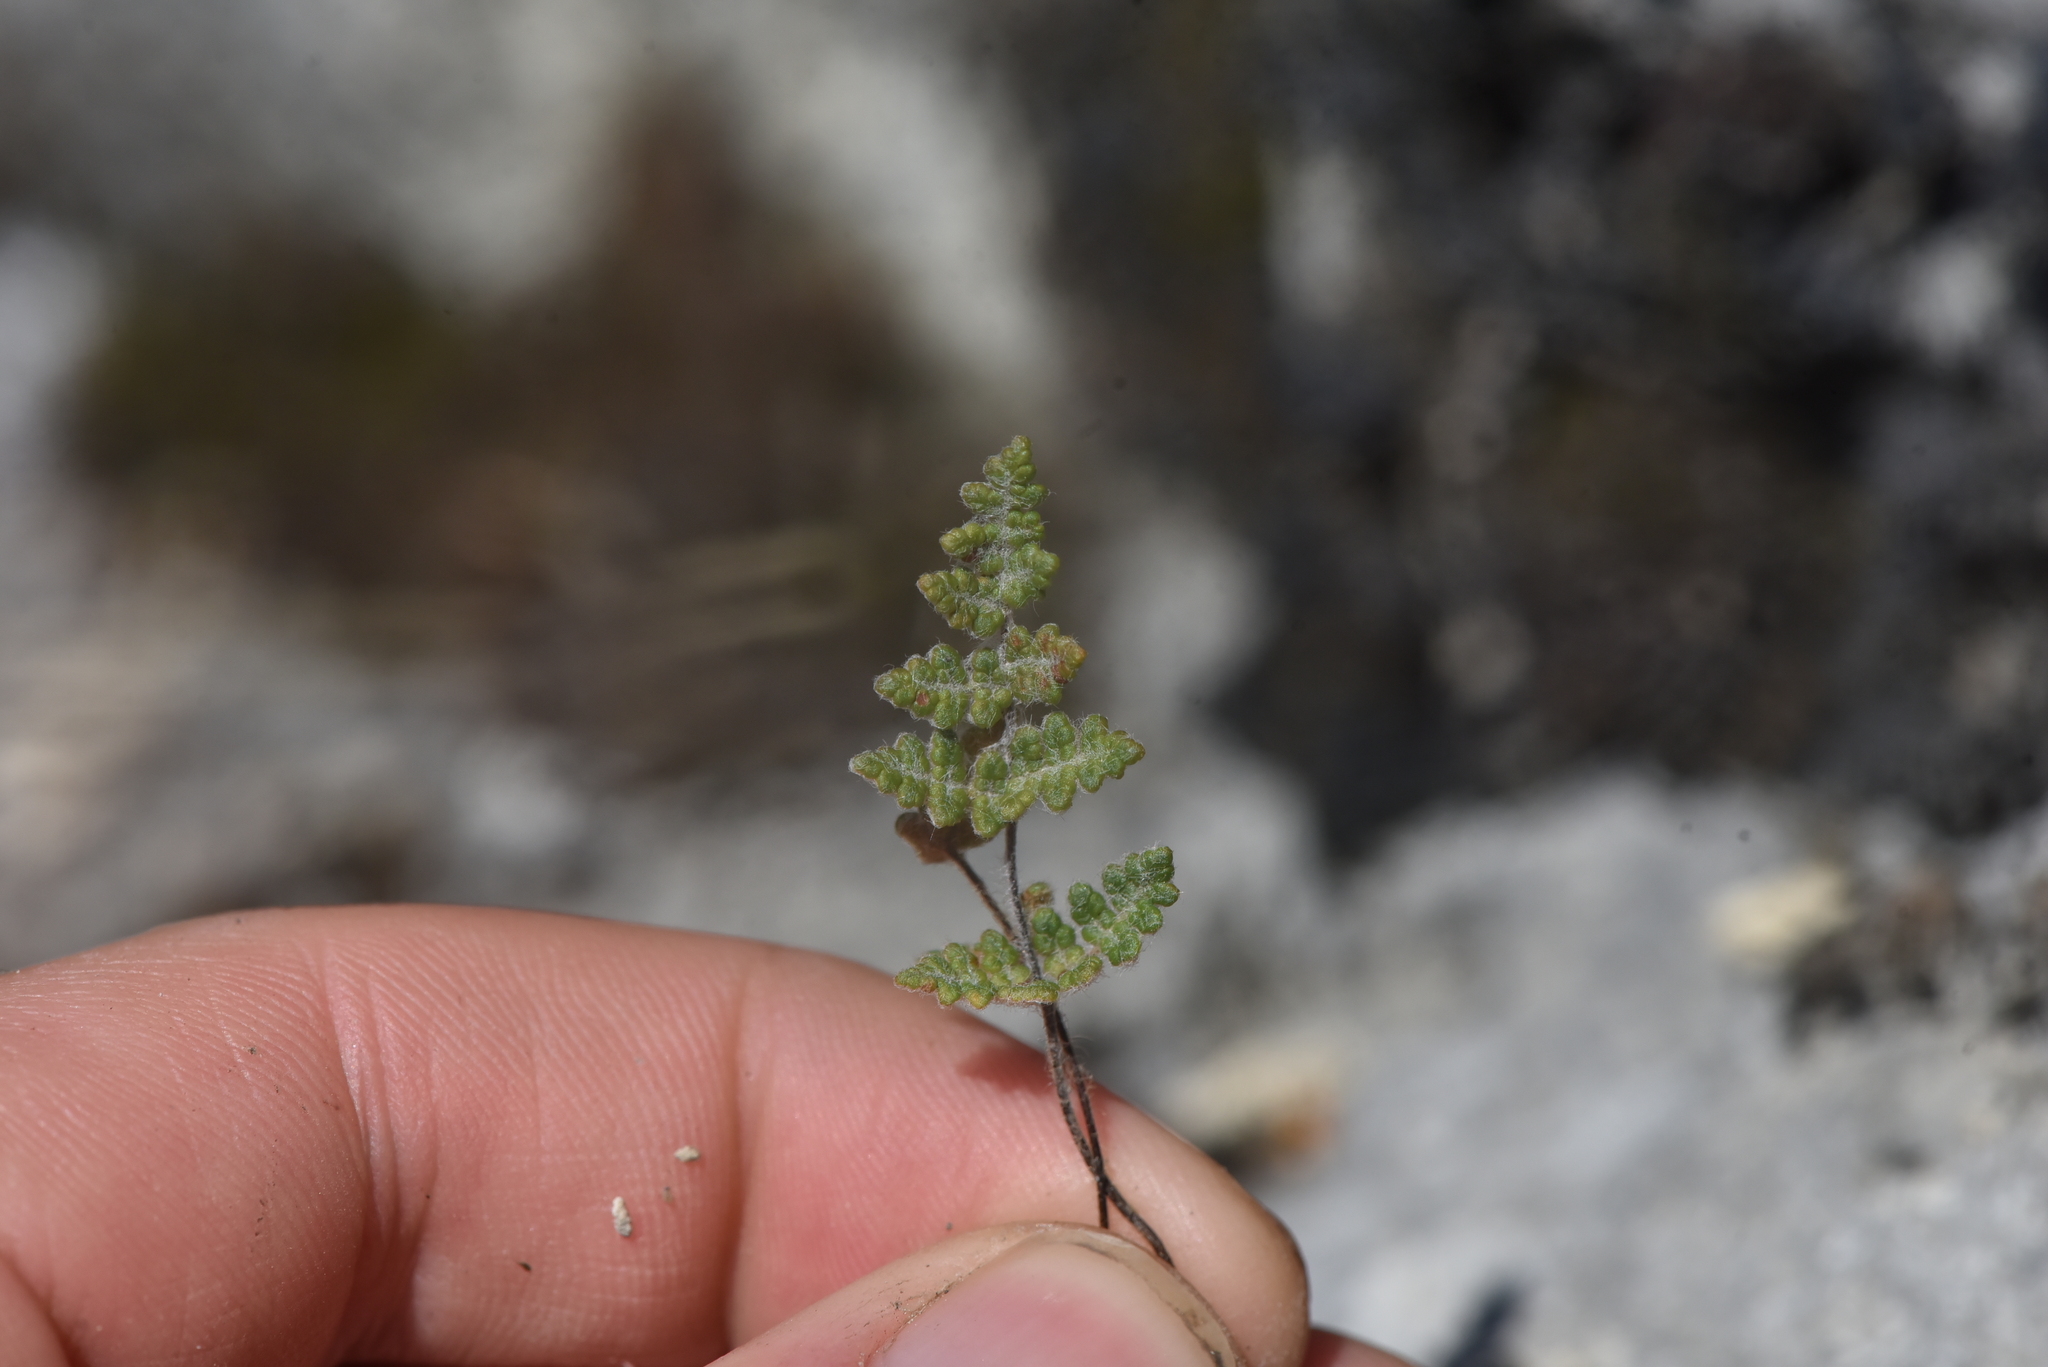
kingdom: Plantae
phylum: Tracheophyta
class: Polypodiopsida
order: Polypodiales
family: Pteridaceae
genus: Myriopteris
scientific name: Myriopteris gracilis
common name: Fee's lip fern
